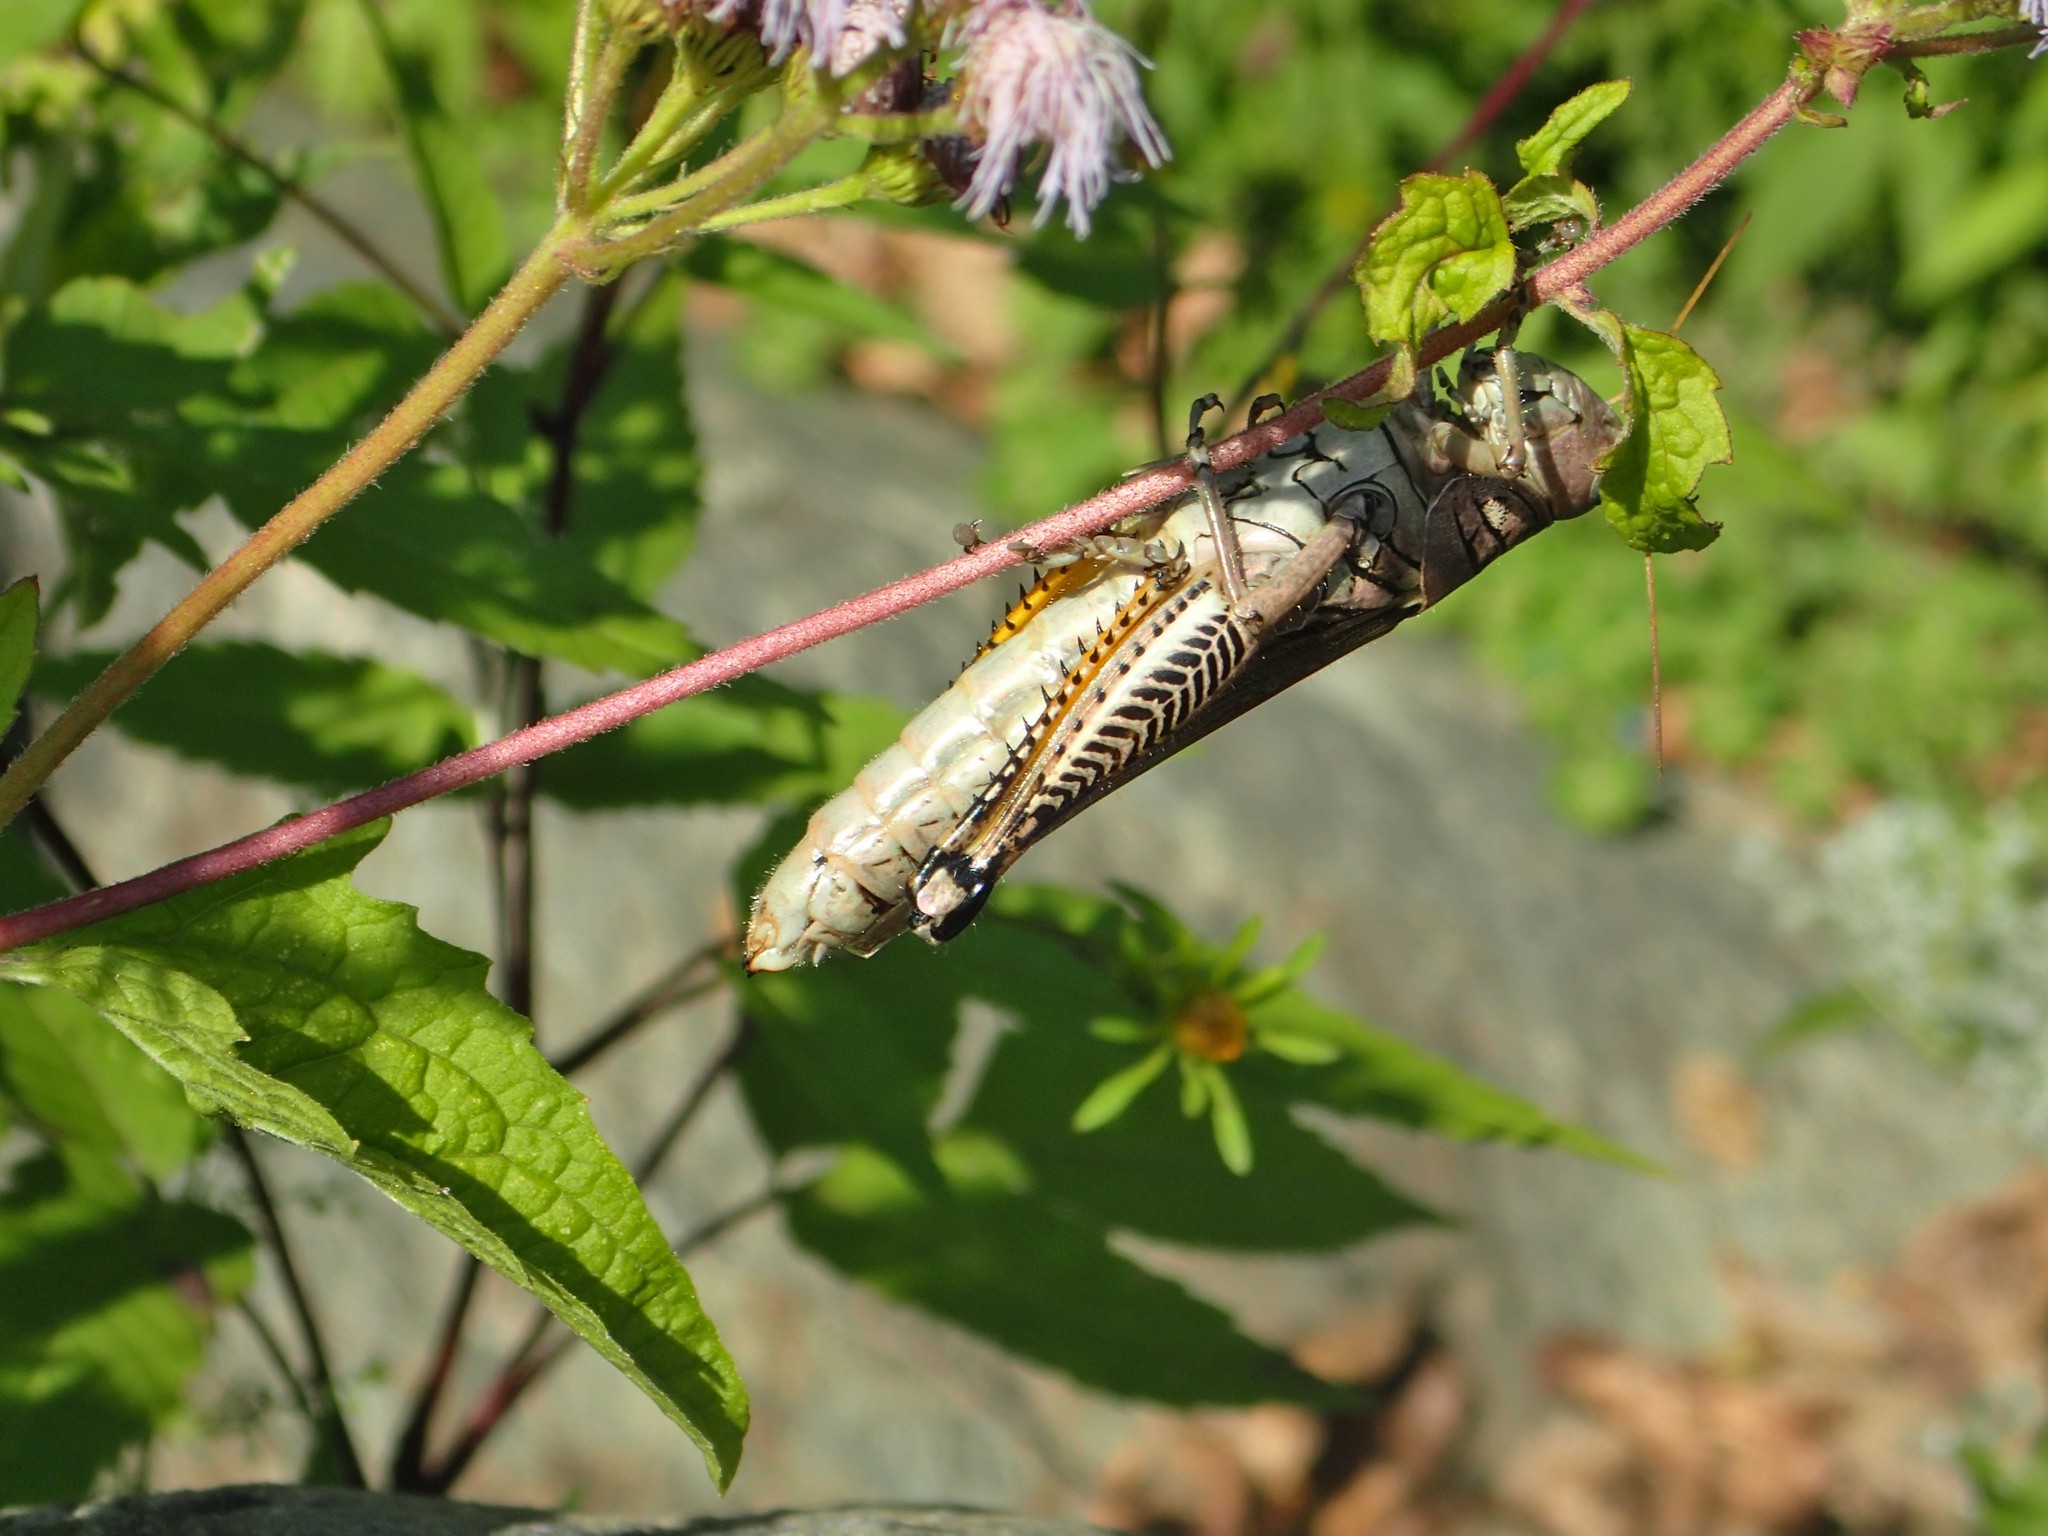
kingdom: Animalia
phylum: Arthropoda
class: Insecta
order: Orthoptera
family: Acrididae
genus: Melanoplus
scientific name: Melanoplus differentialis
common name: Differential grasshopper
